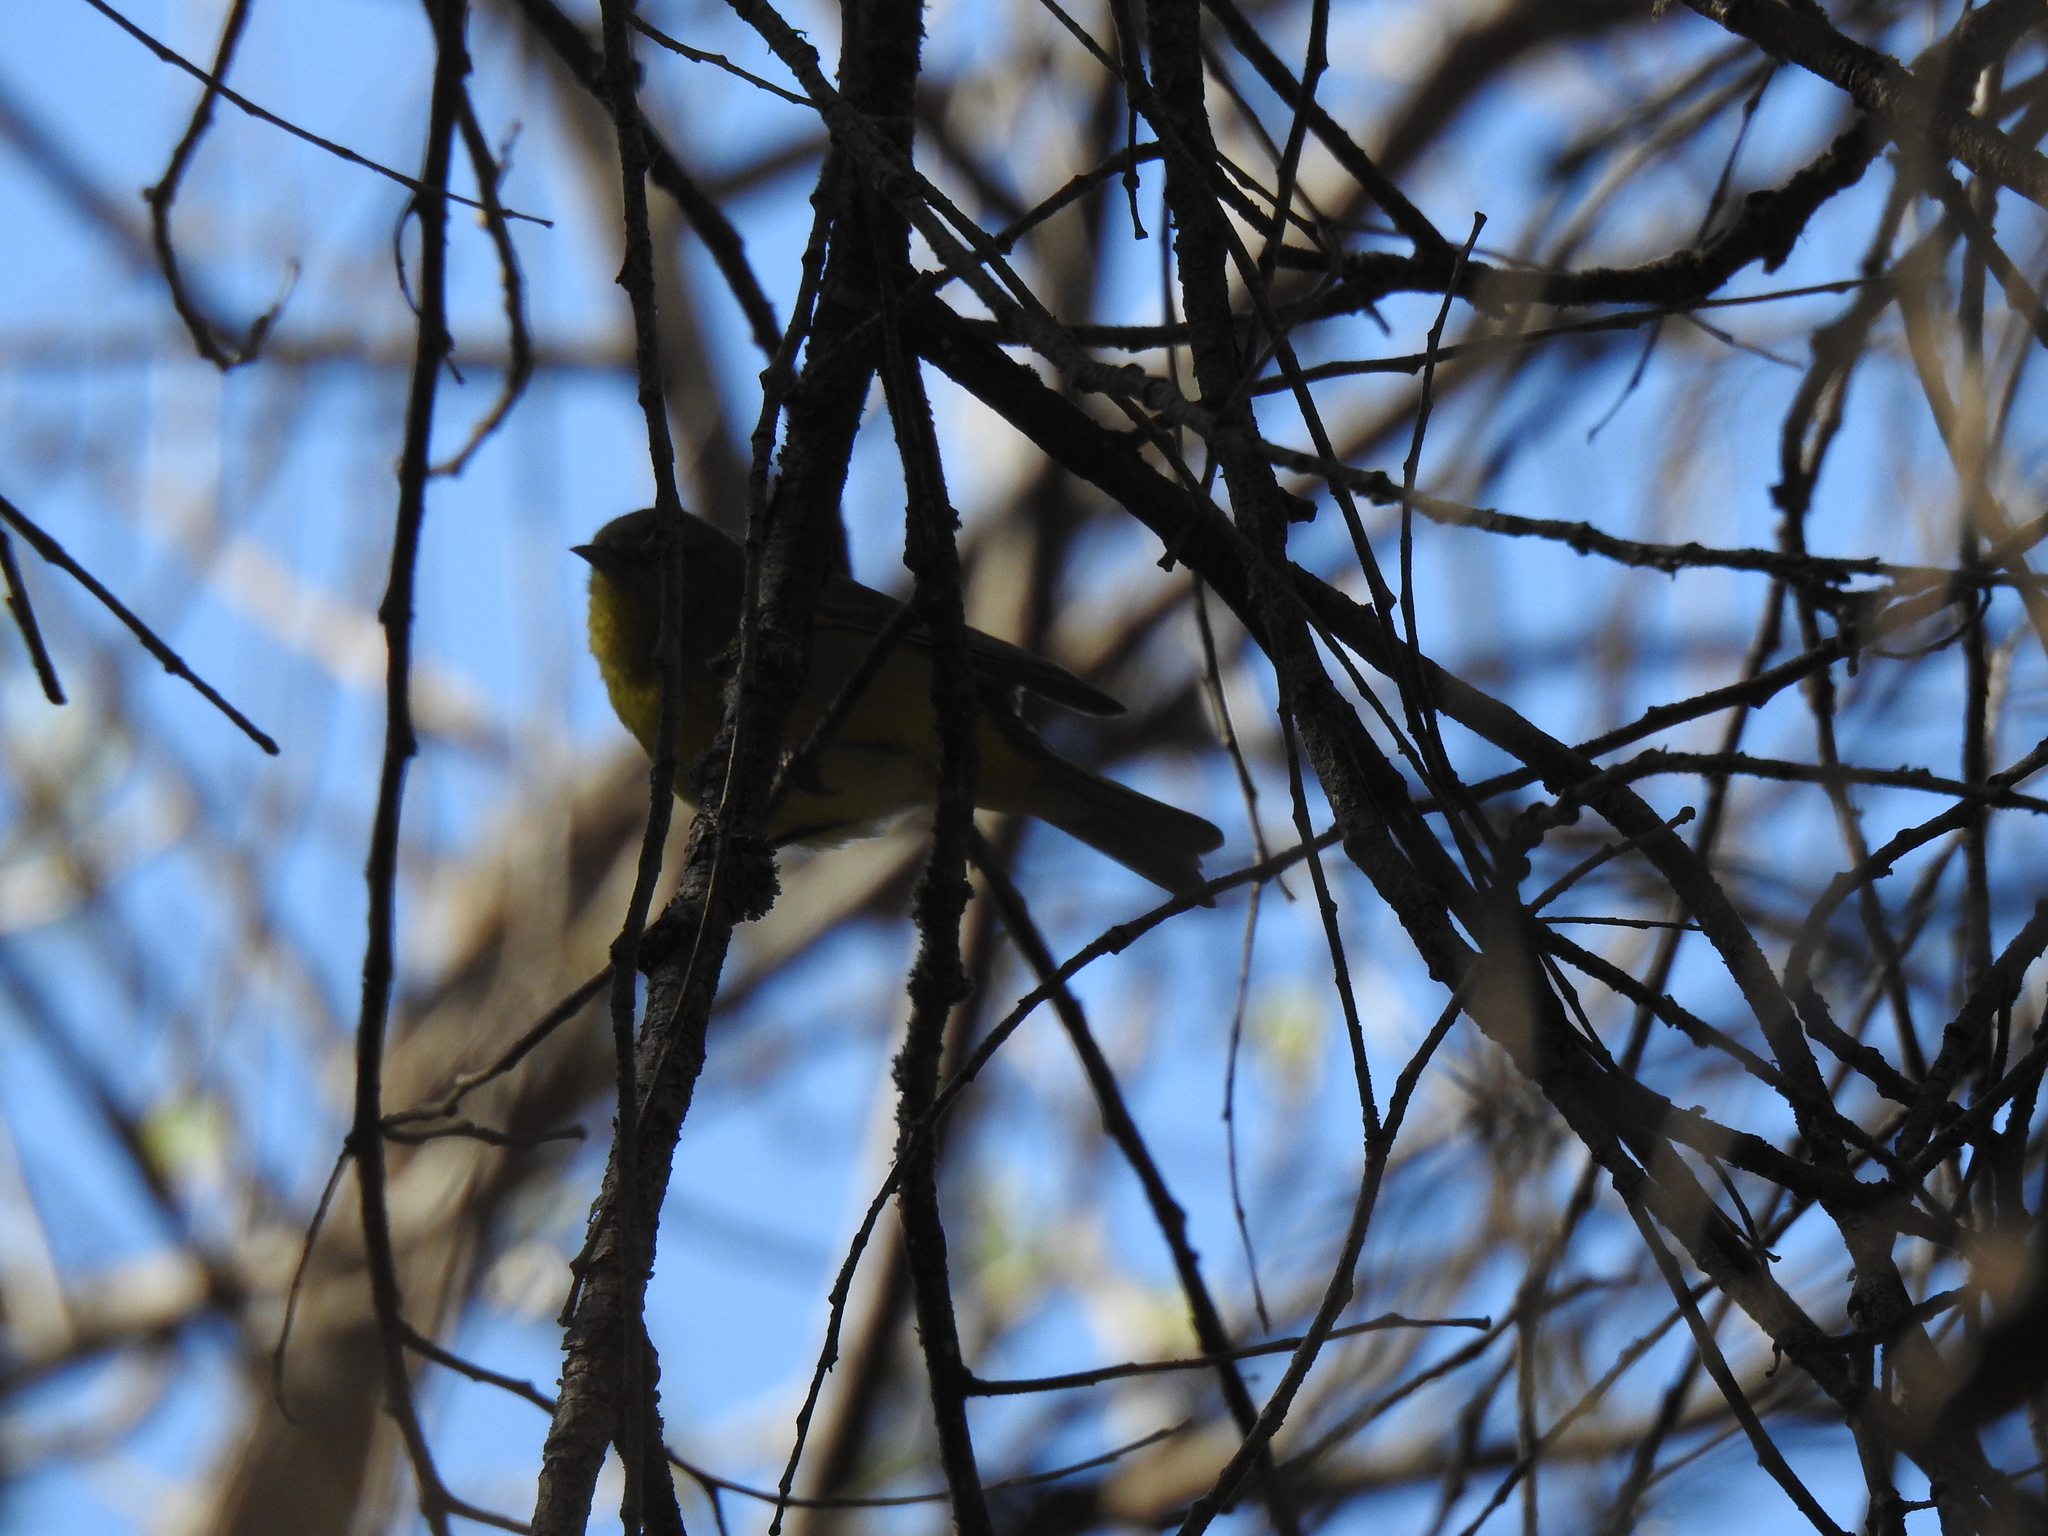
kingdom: Animalia
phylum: Chordata
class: Aves
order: Passeriformes
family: Parulidae
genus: Leiothlypis
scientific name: Leiothlypis celata
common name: Orange-crowned warbler
